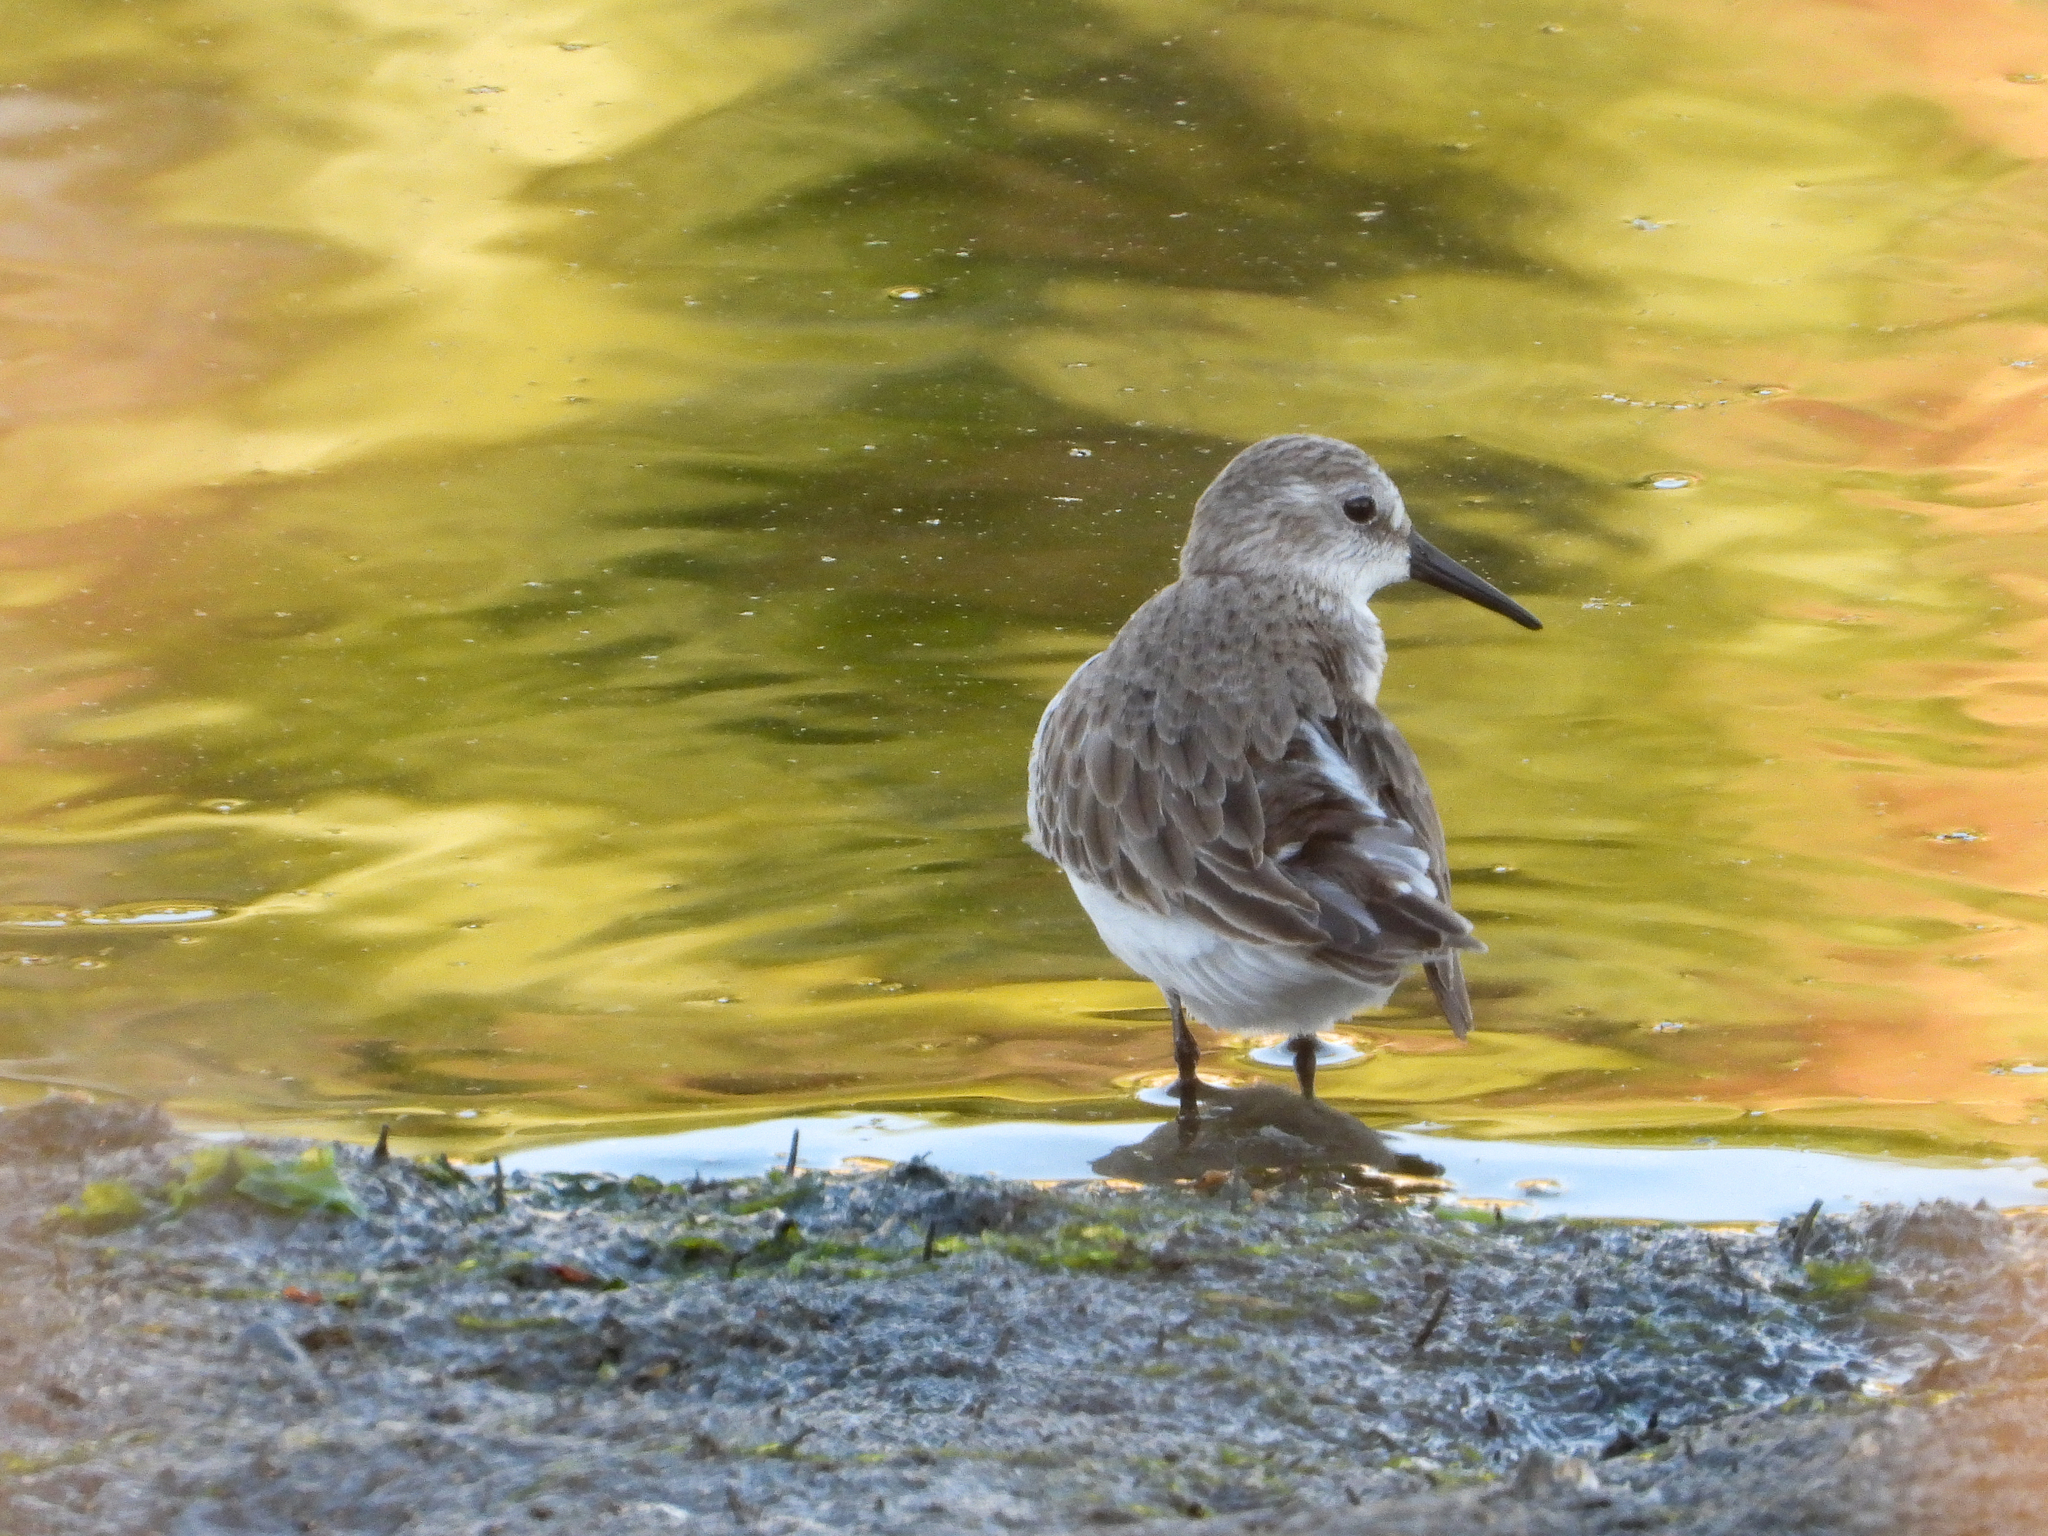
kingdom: Animalia
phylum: Chordata
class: Aves
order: Charadriiformes
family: Scolopacidae
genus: Calidris
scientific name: Calidris mauri
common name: Western sandpiper
